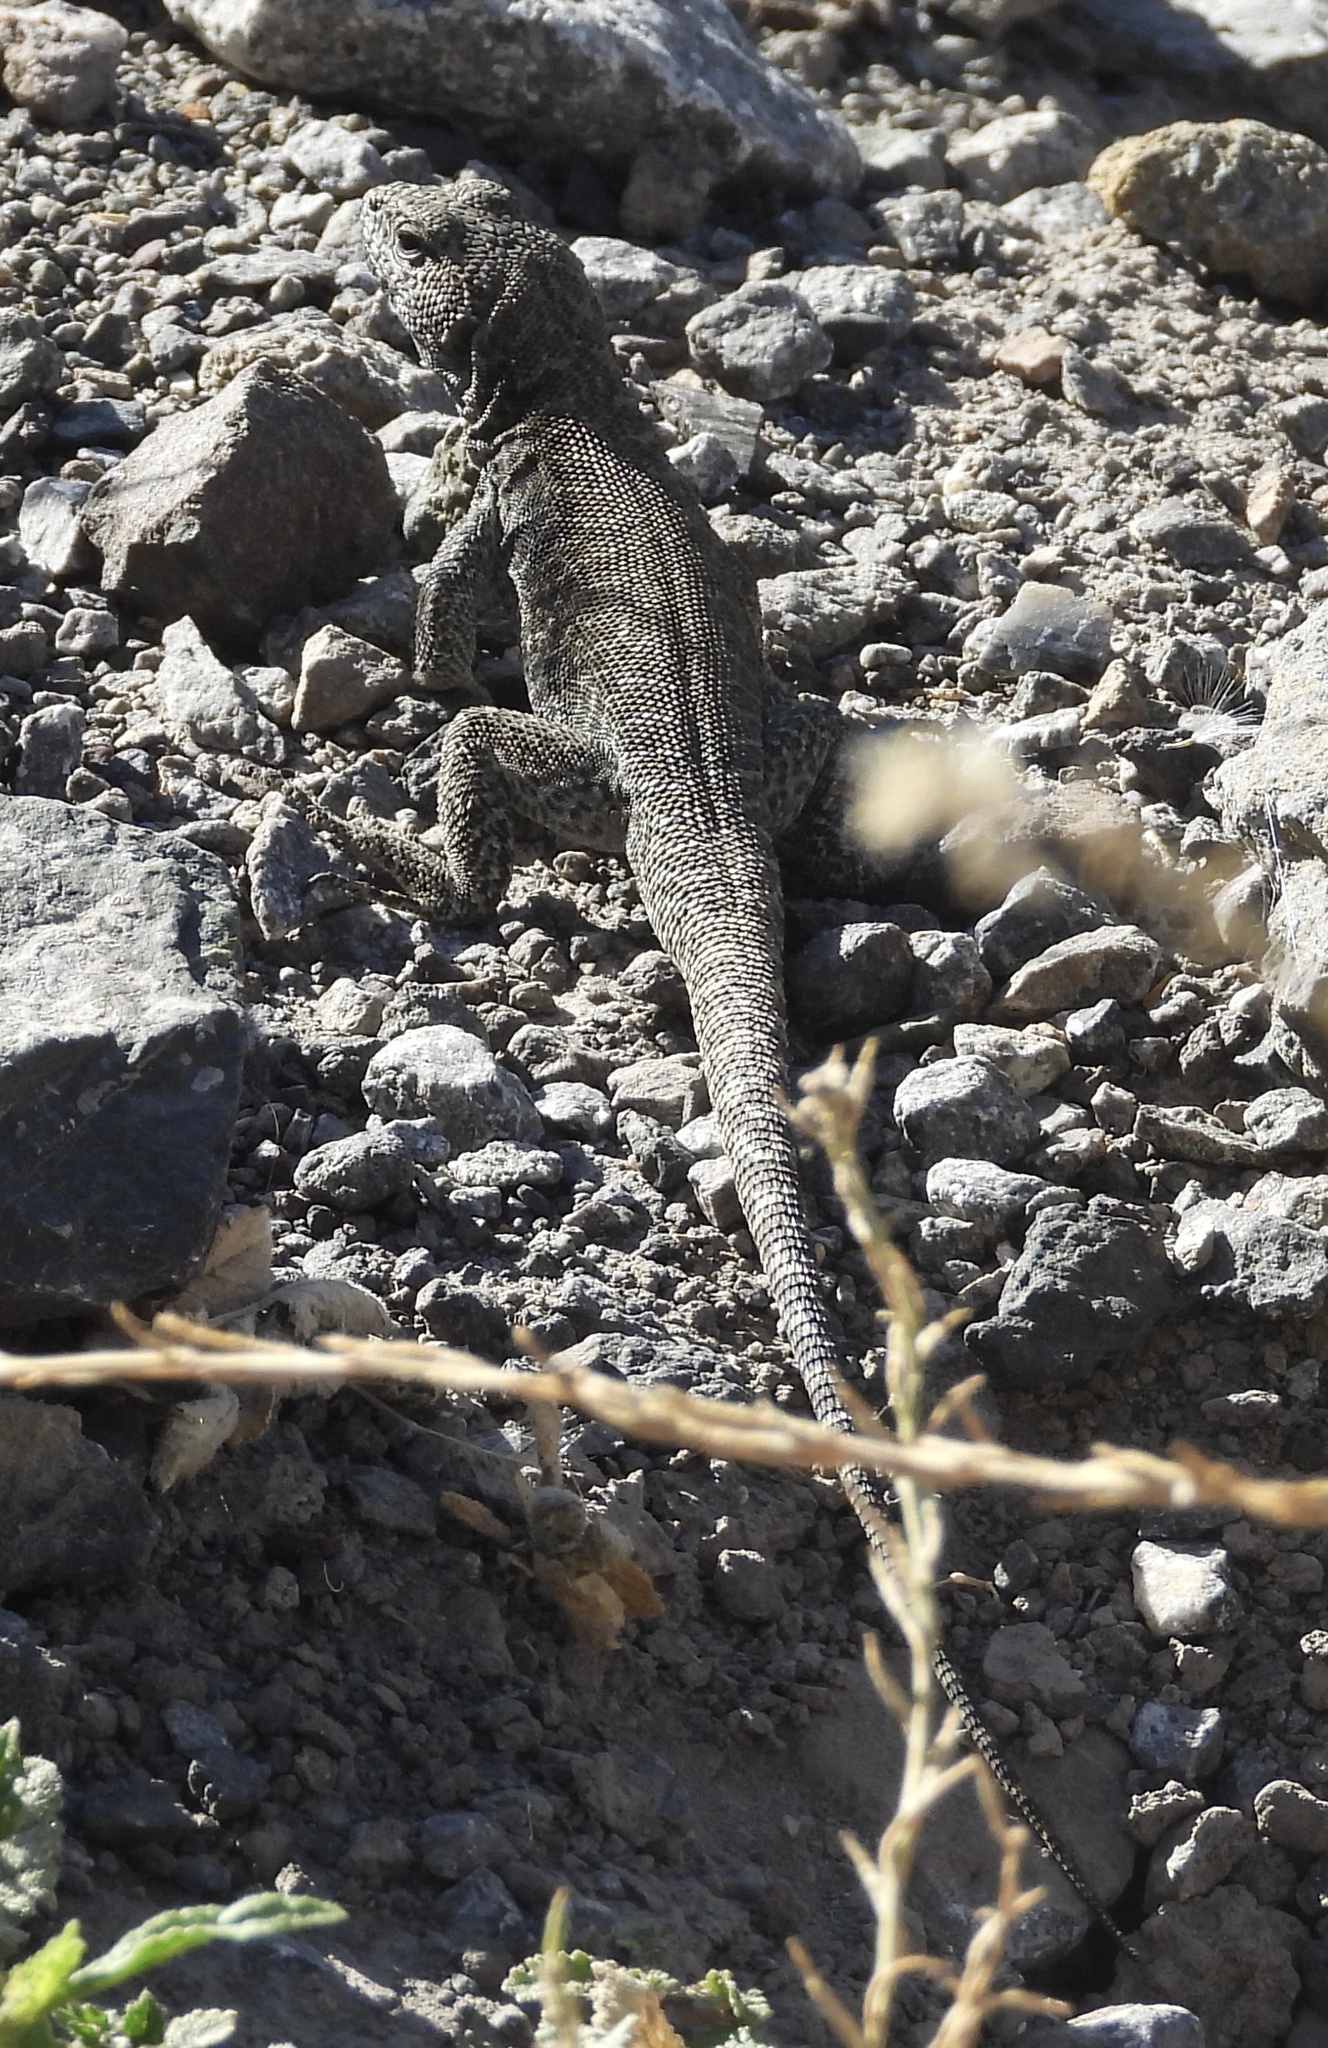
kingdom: Animalia
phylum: Chordata
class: Squamata
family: Liolaemidae
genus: Liolaemus
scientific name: Liolaemus valdesianus
